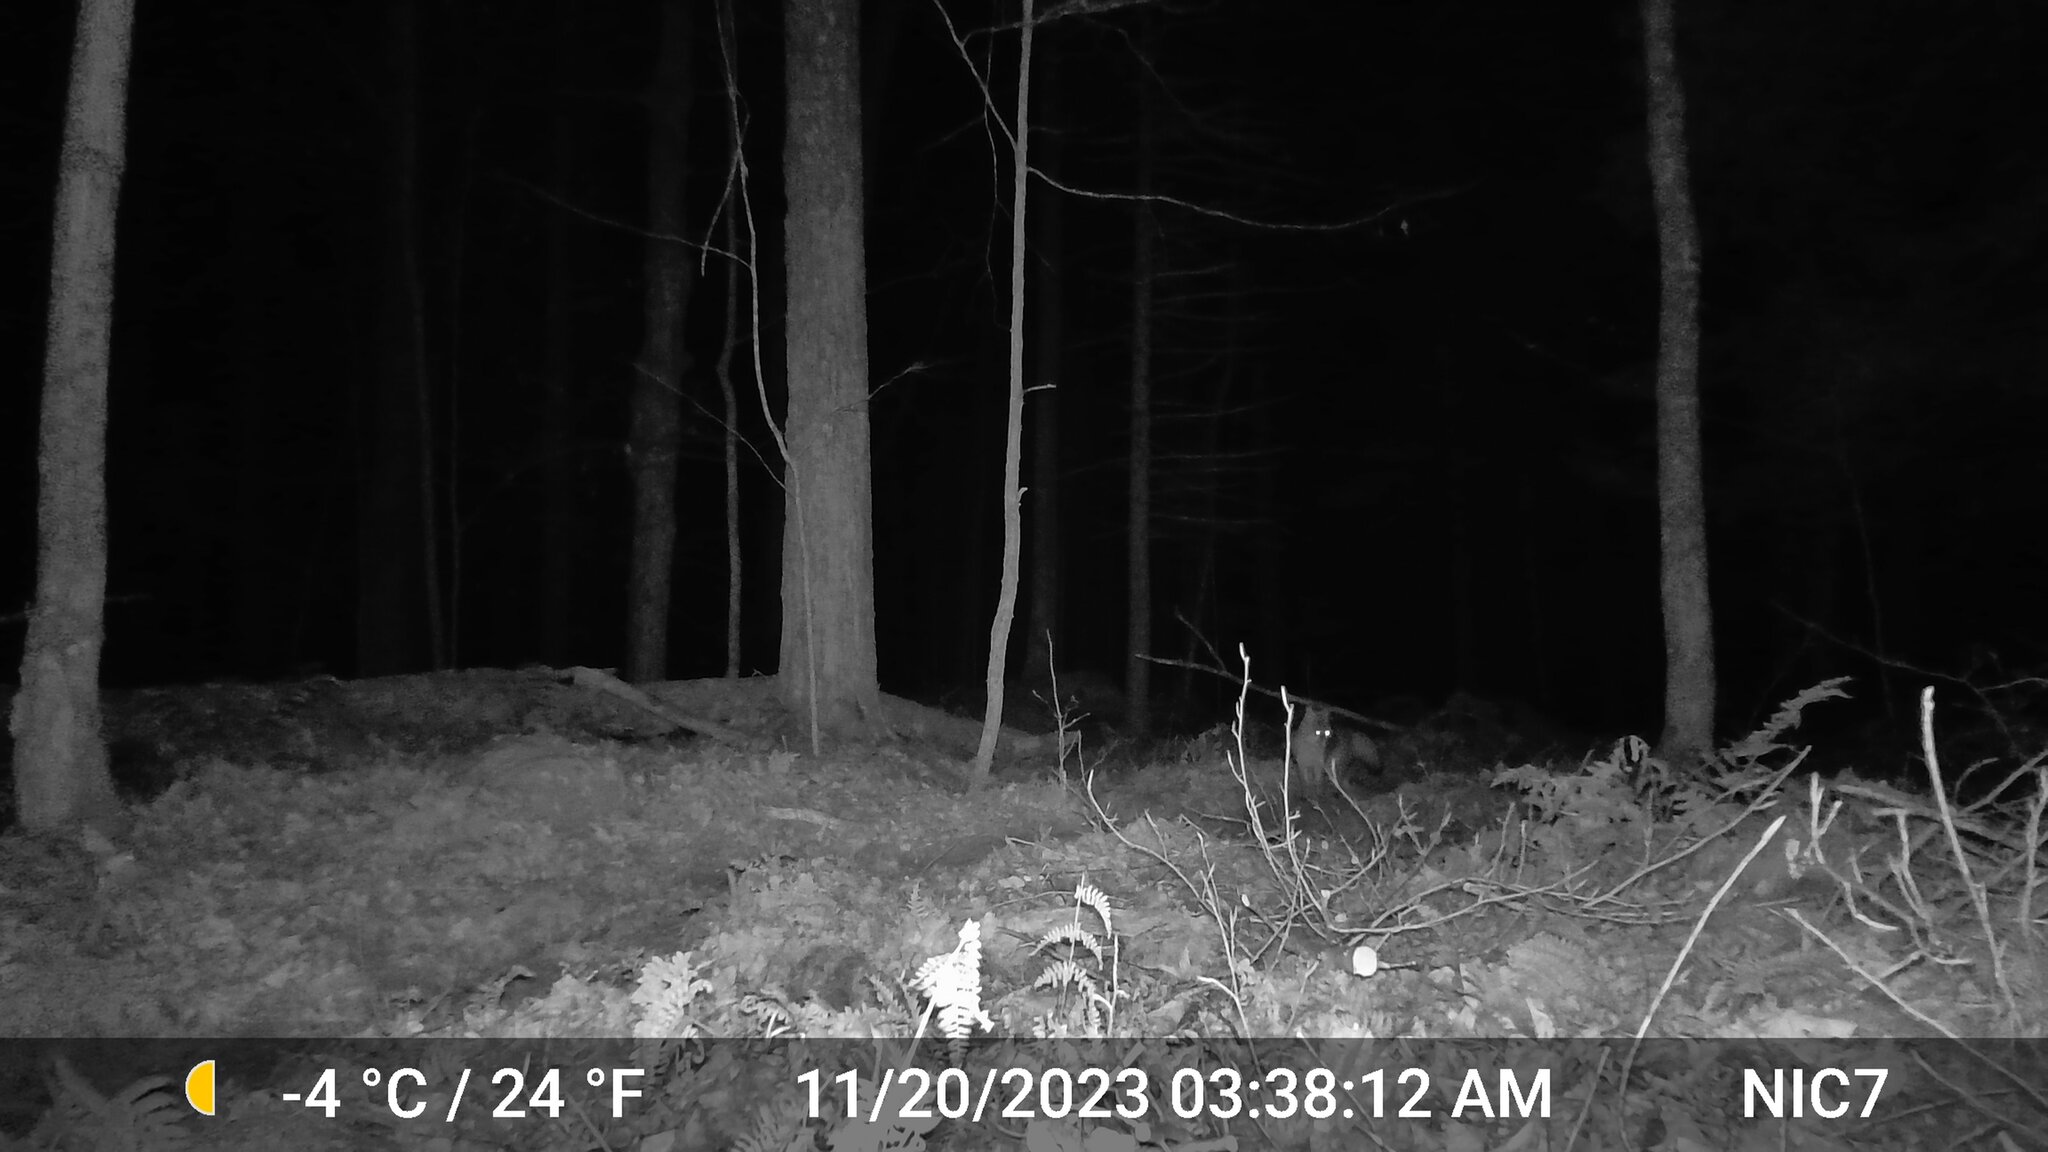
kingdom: Animalia
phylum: Chordata
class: Mammalia
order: Carnivora
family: Canidae
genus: Urocyon
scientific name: Urocyon cinereoargenteus
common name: Gray fox
